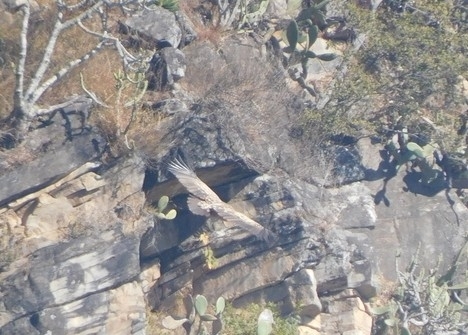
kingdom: Animalia
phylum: Chordata
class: Aves
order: Accipitriformes
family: Accipitridae
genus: Gyps
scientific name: Gyps himalayensis
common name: Himalayan griffon
